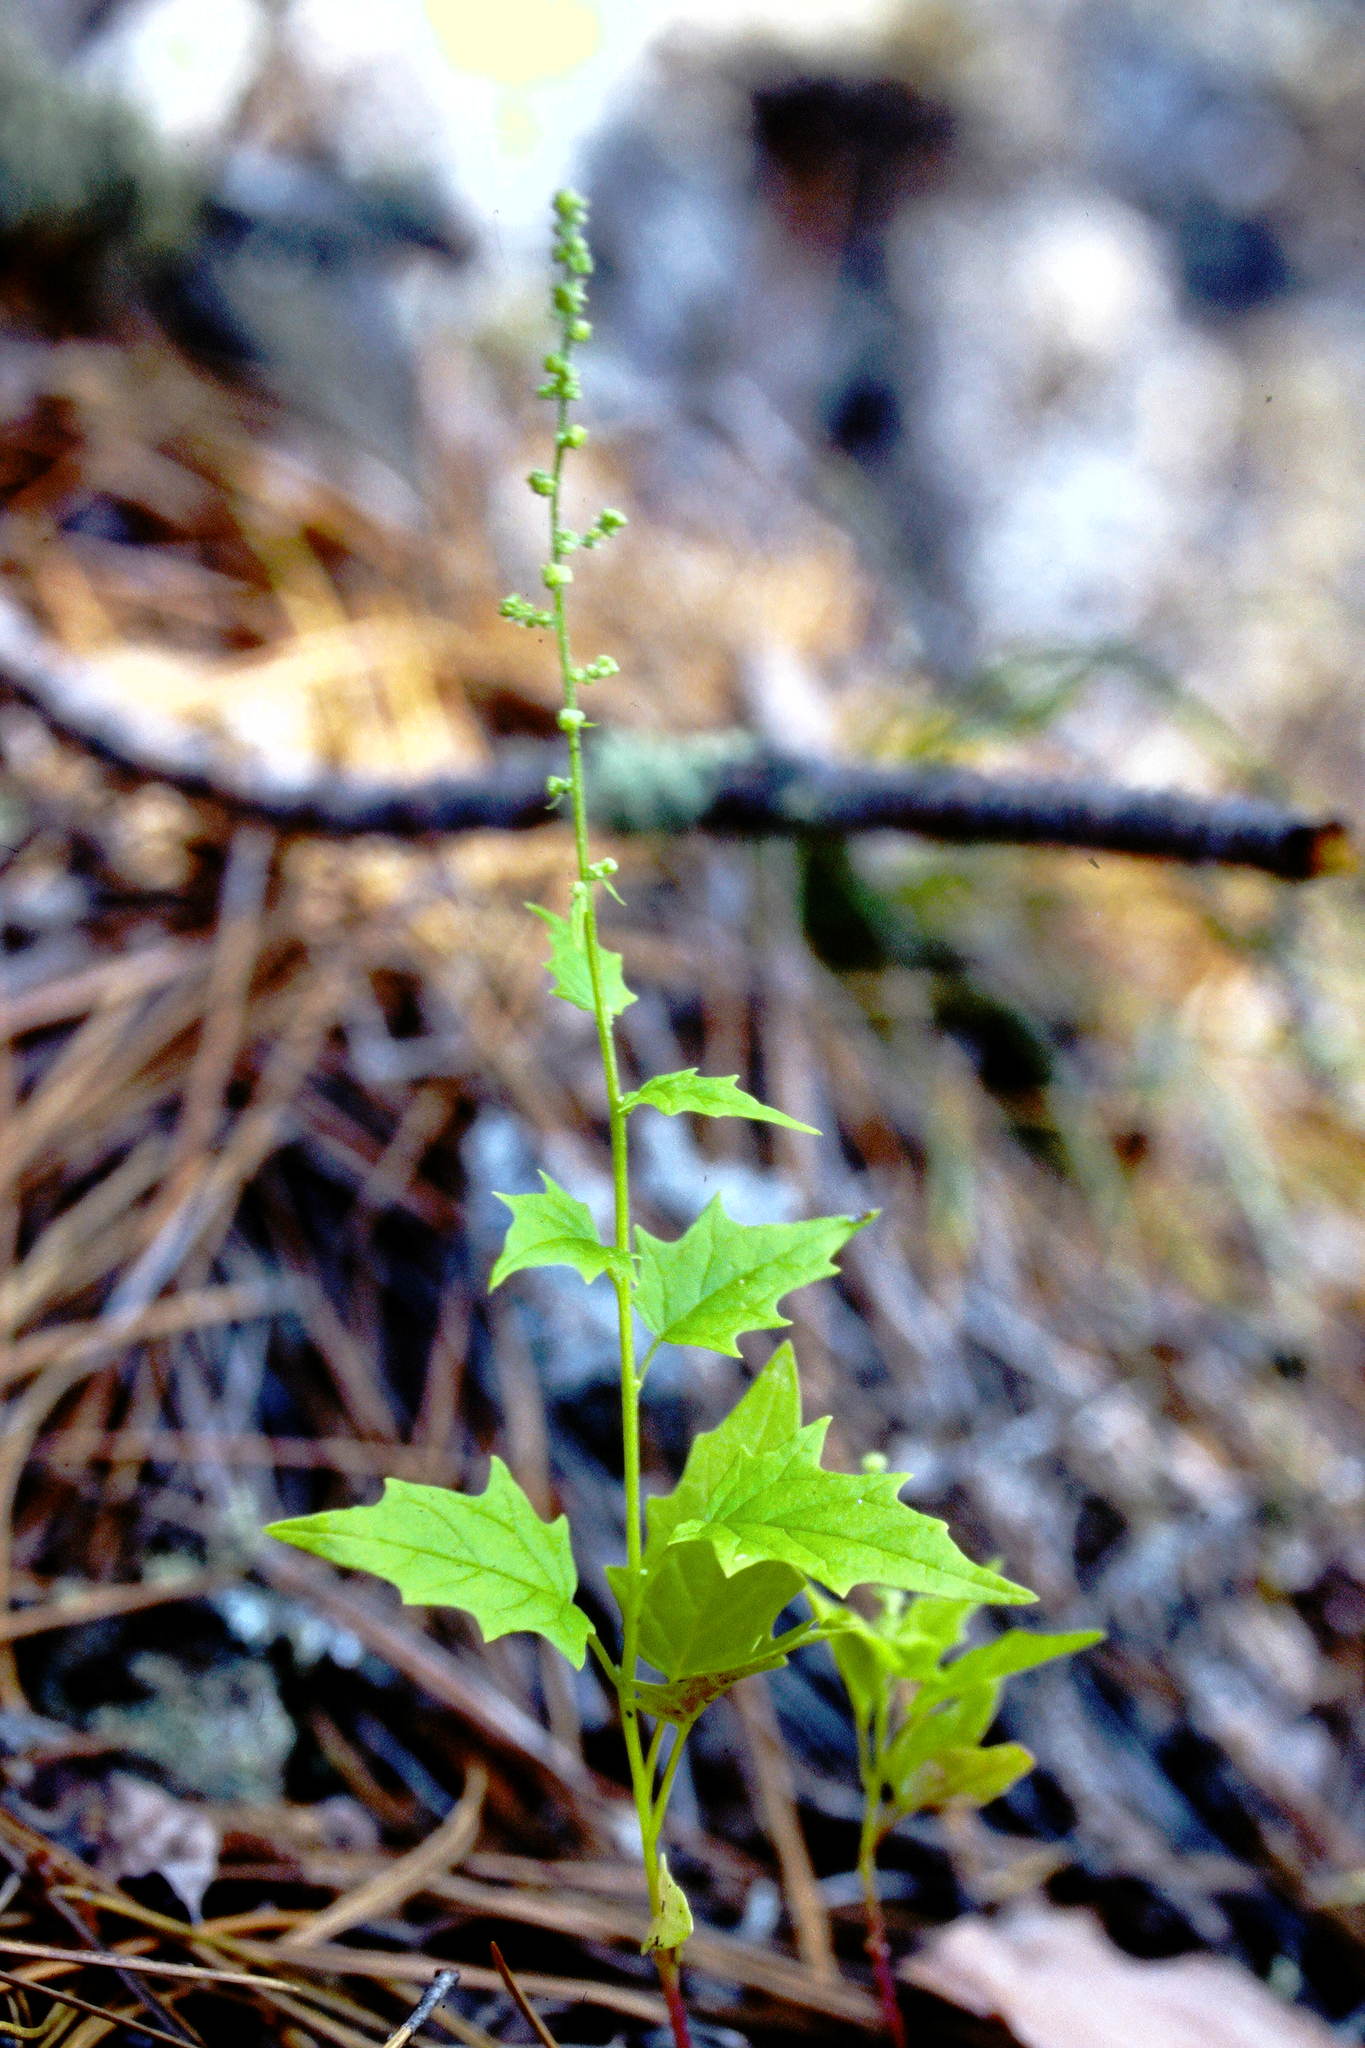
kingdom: Plantae
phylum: Tracheophyta
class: Magnoliopsida
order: Caryophyllales
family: Amaranthaceae
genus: Chenopodiastrum
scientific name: Chenopodiastrum simplex
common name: Large-seed goosefoot
